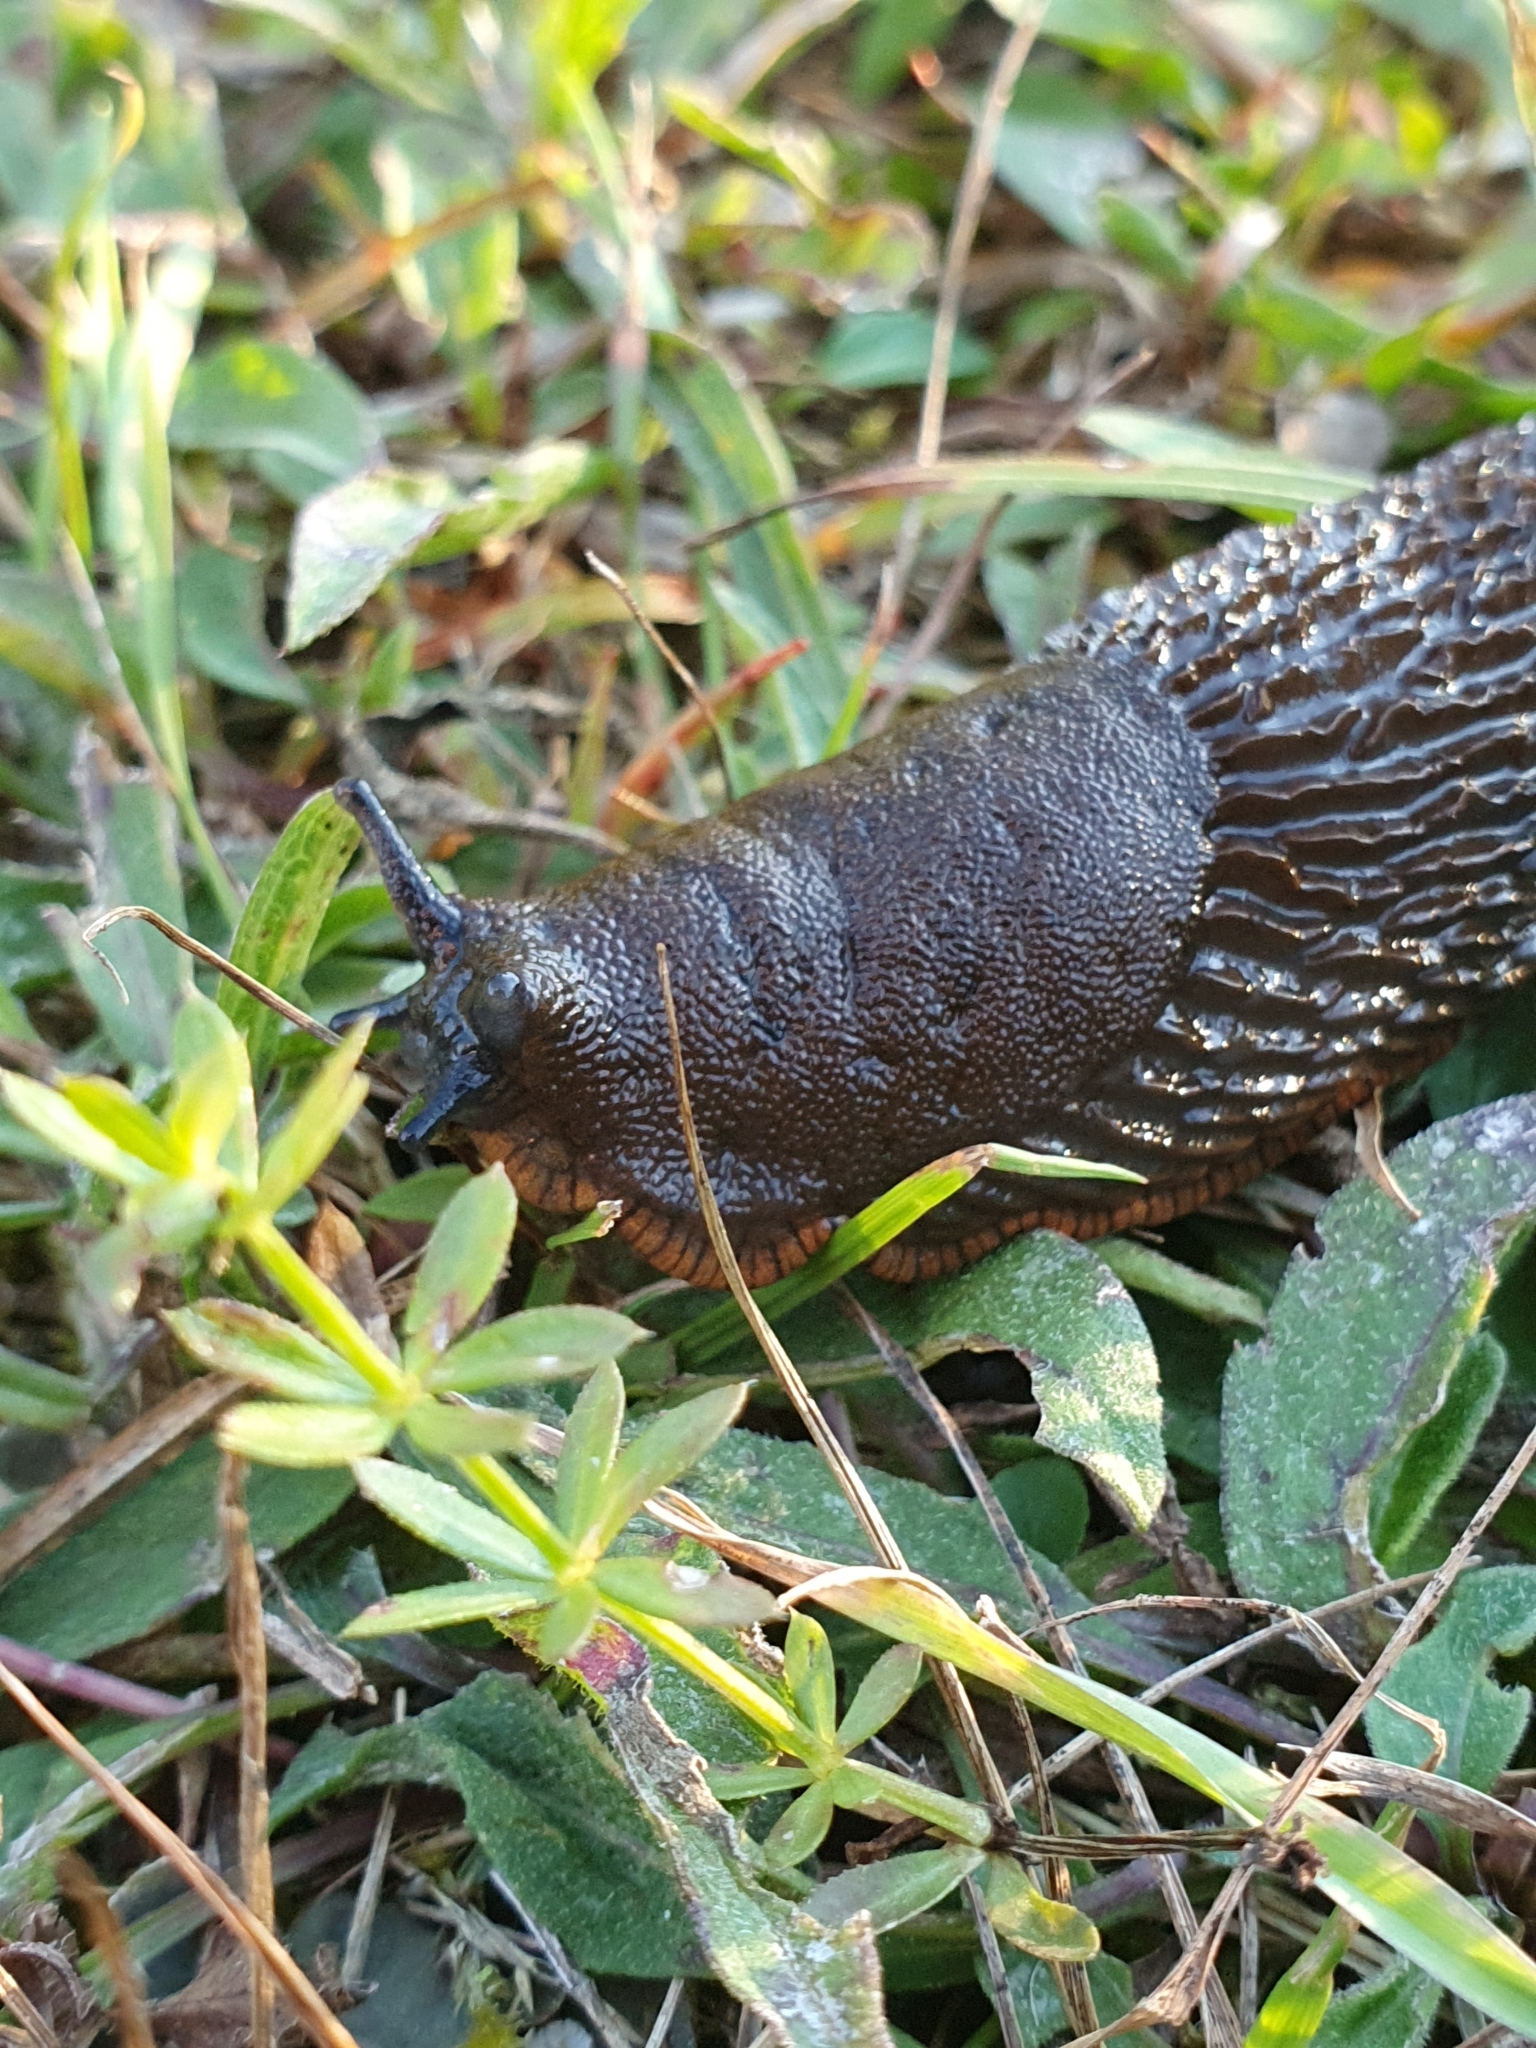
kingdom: Animalia
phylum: Mollusca
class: Gastropoda
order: Stylommatophora
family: Arionidae
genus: Arion
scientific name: Arion vulgaris
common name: Lusitanian slug
